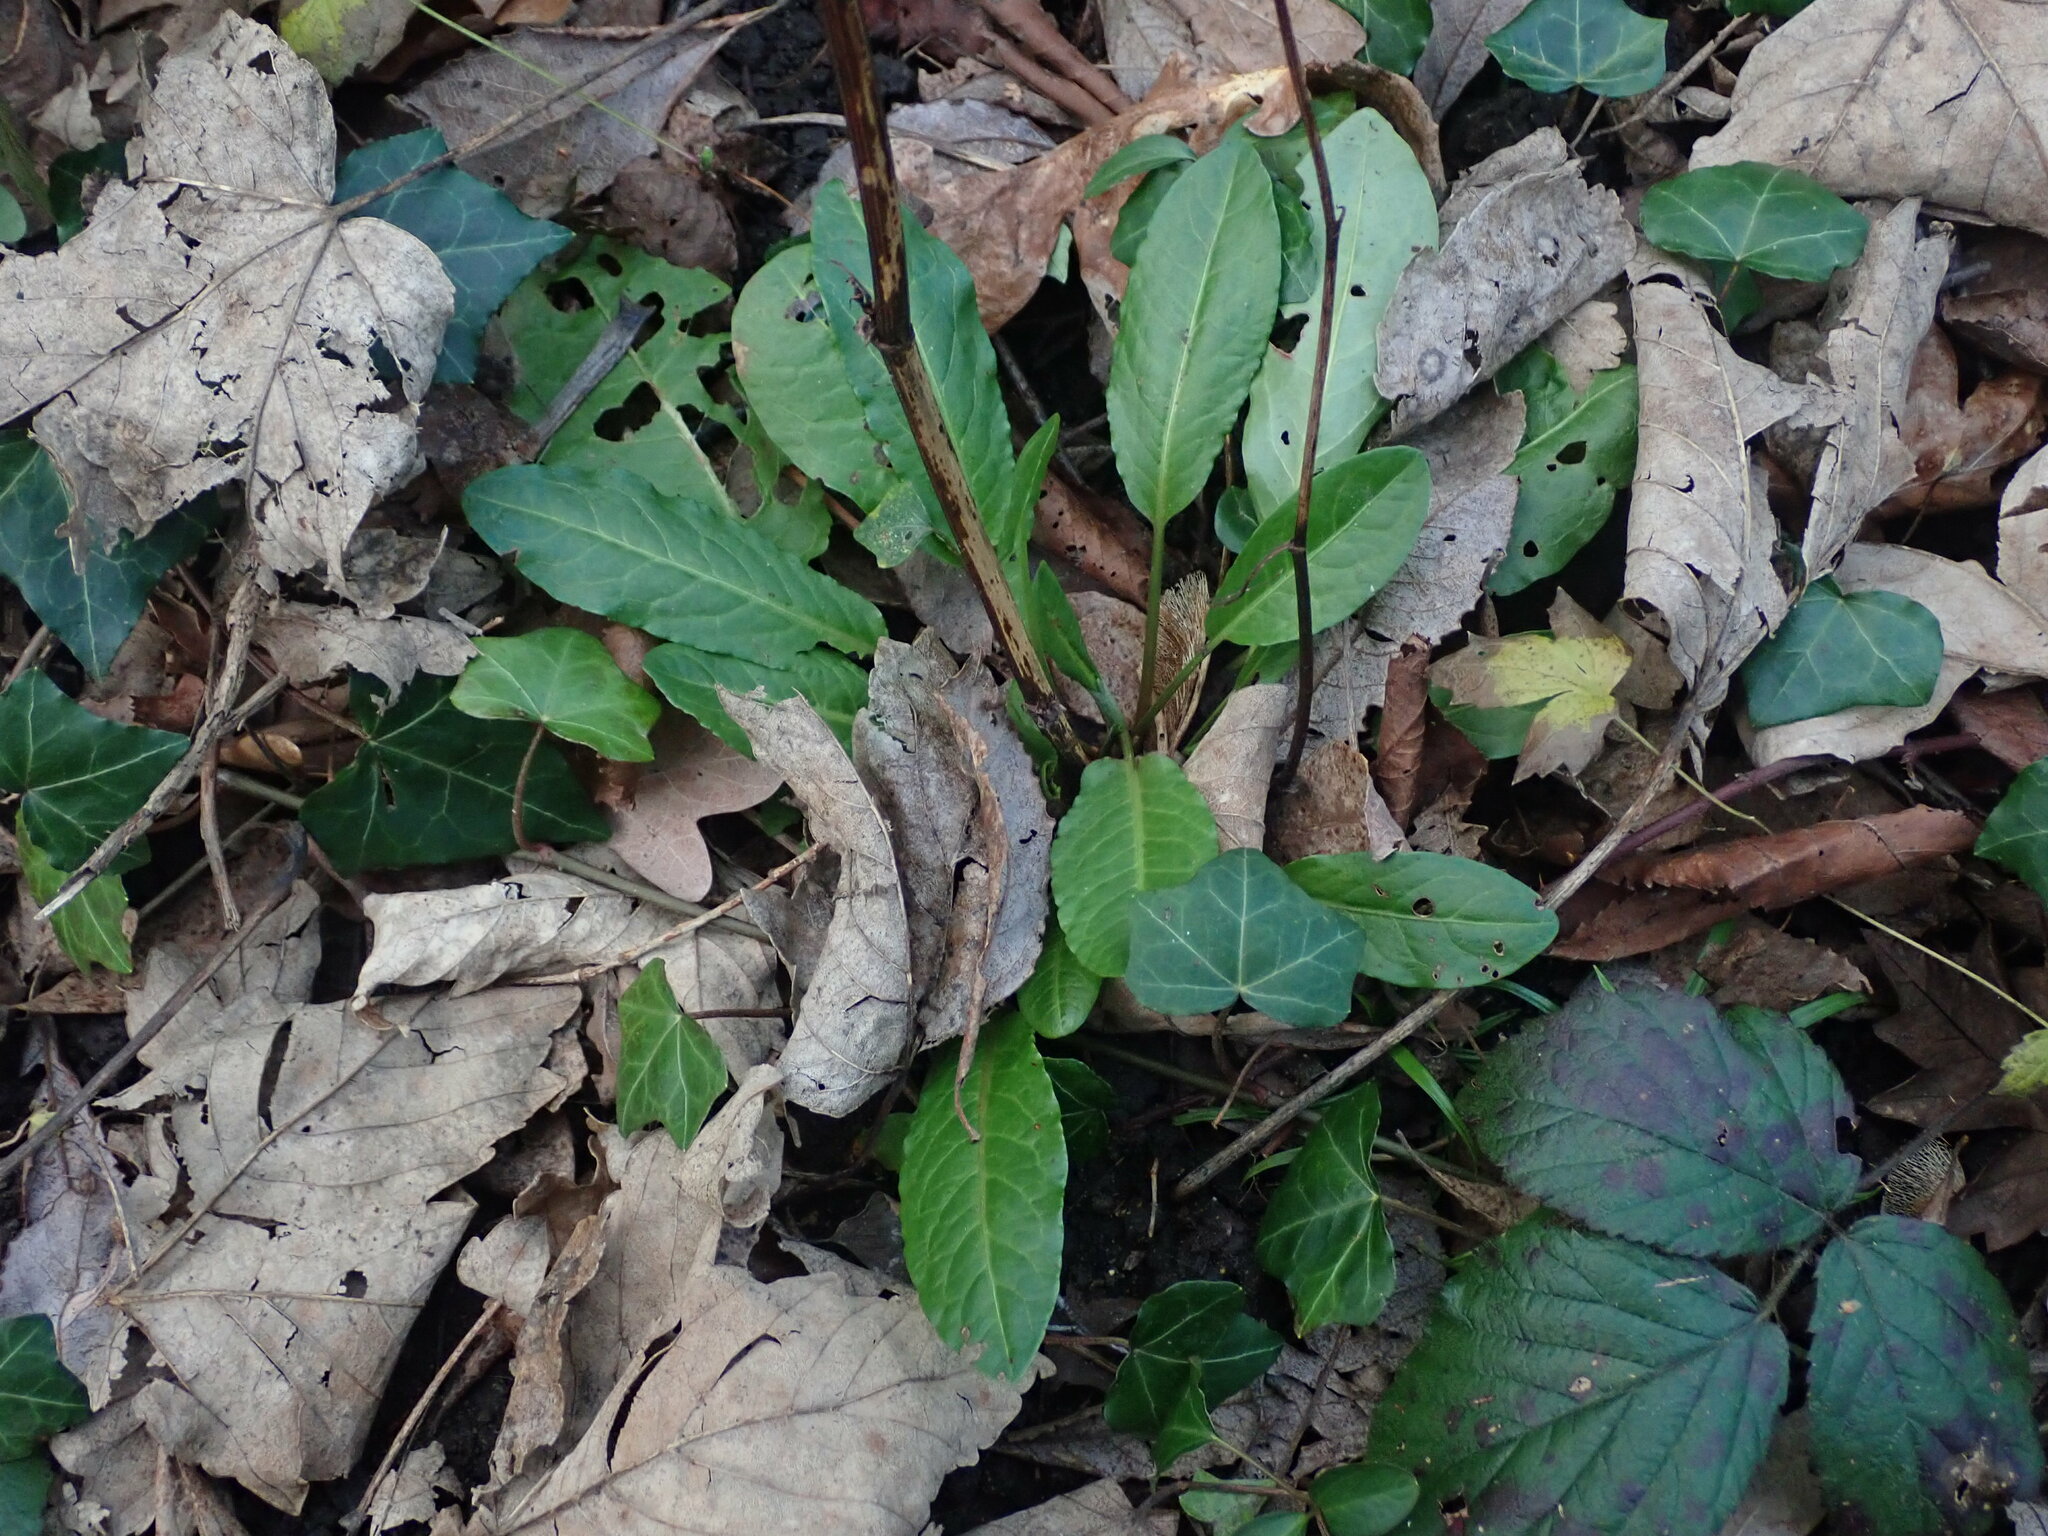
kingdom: Plantae
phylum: Tracheophyta
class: Magnoliopsida
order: Caryophyllales
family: Polygonaceae
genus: Rumex
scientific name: Rumex sanguineus
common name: Wood dock
